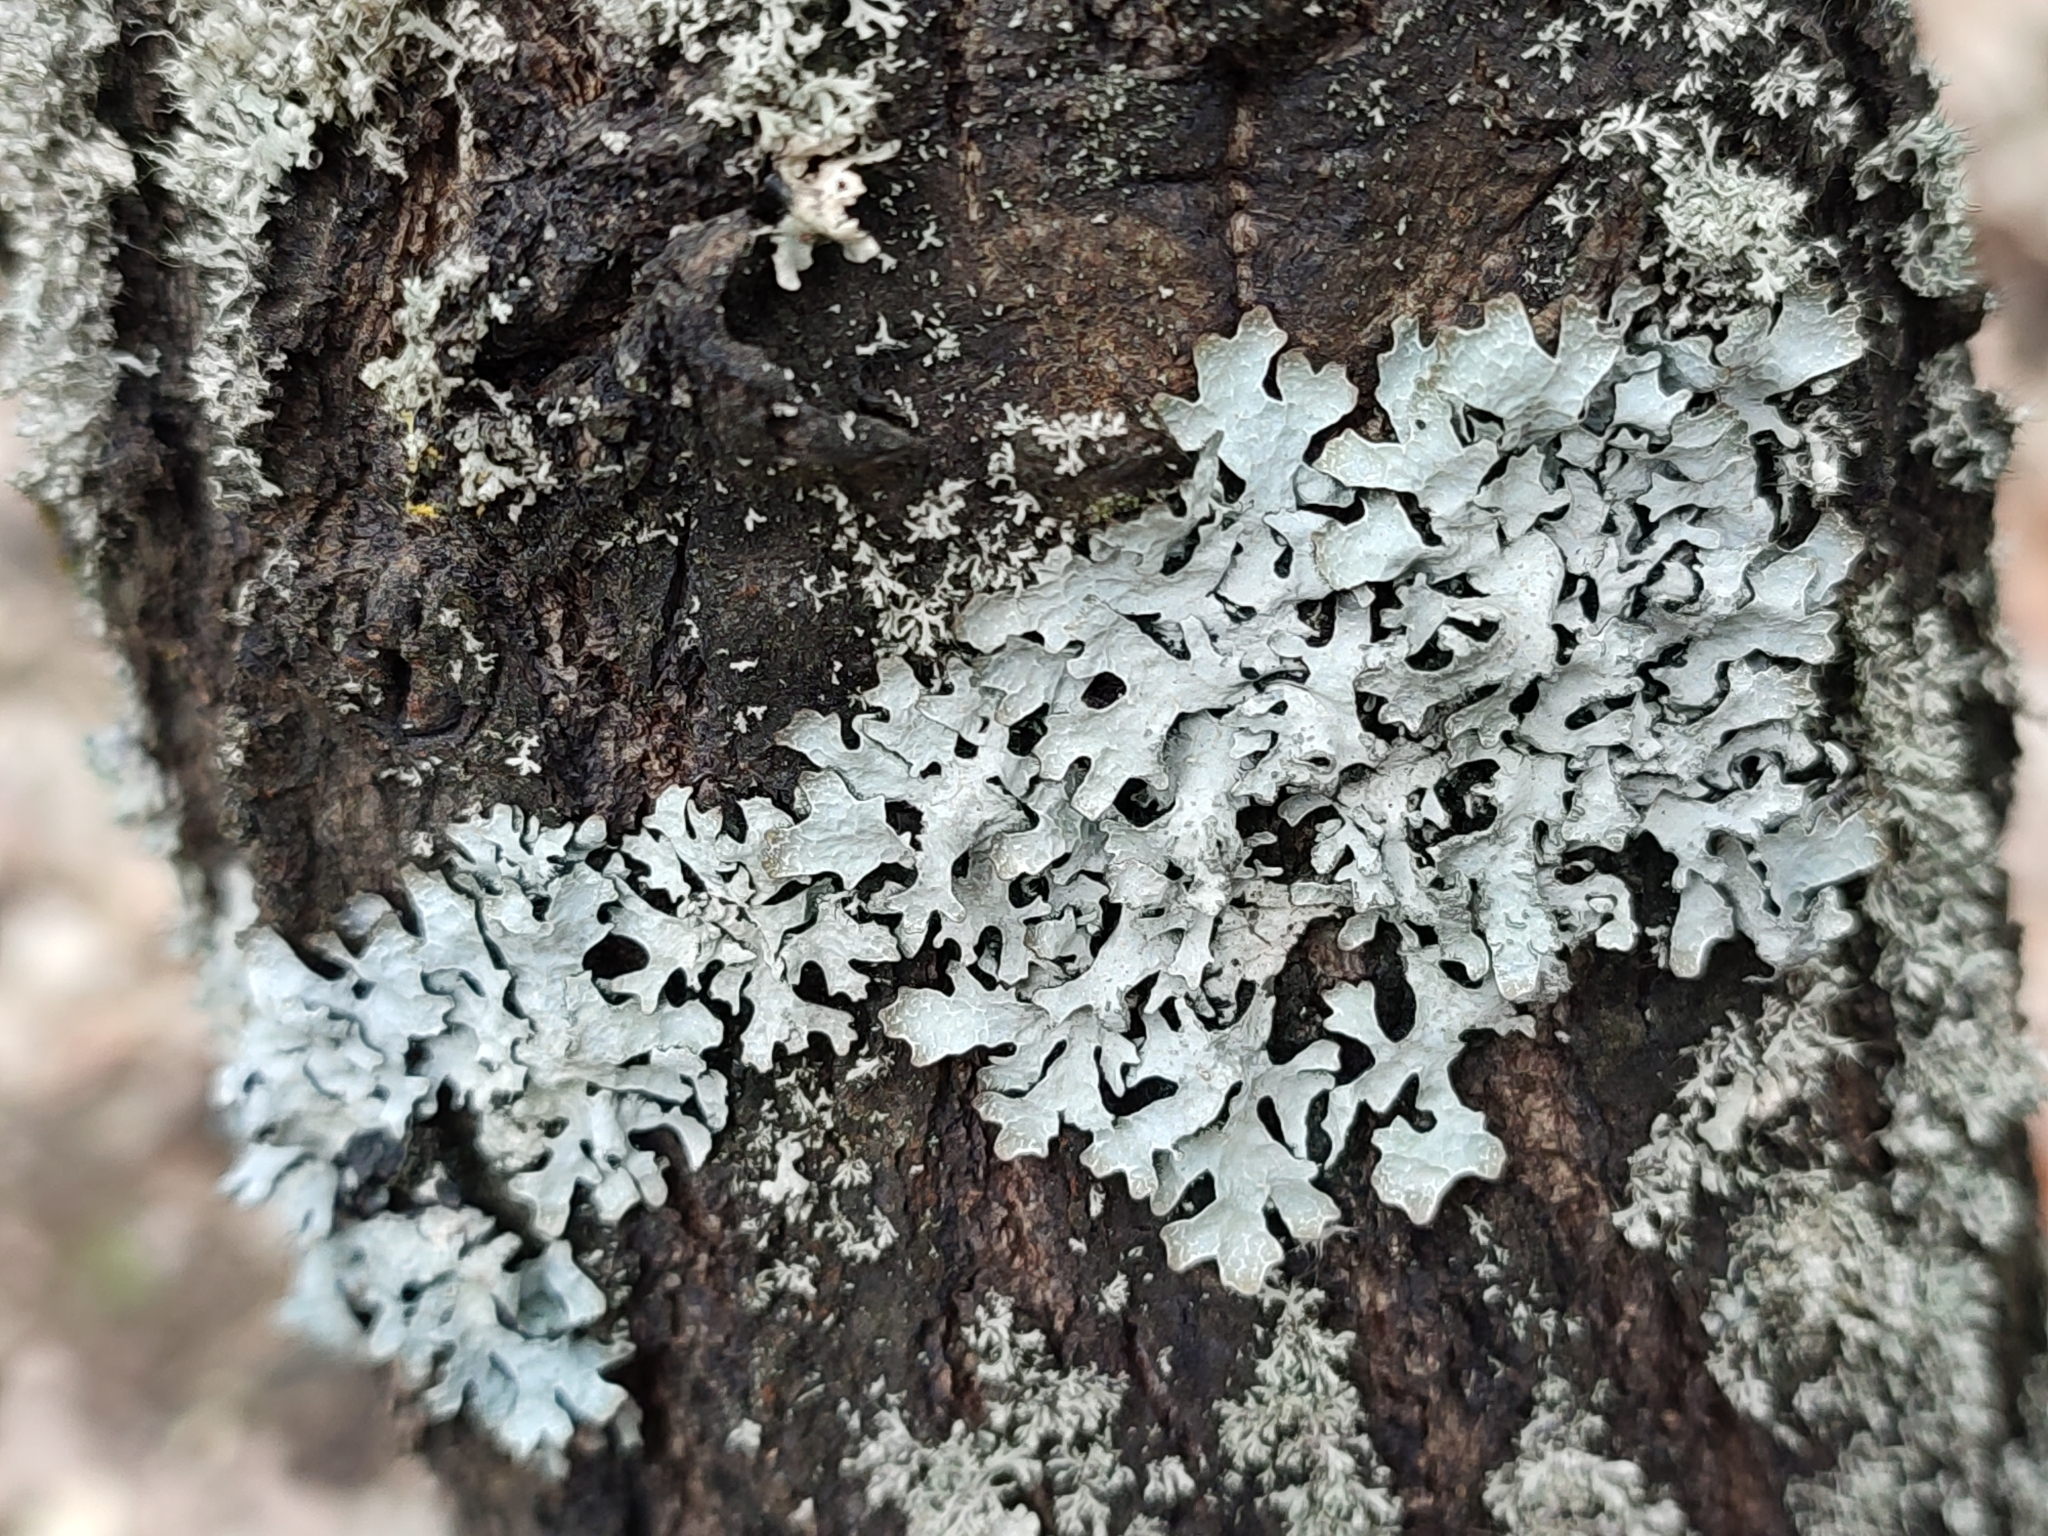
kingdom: Fungi
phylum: Ascomycota
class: Lecanoromycetes
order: Lecanorales
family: Parmeliaceae
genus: Parmelia
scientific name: Parmelia sulcata
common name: Netted shield lichen
